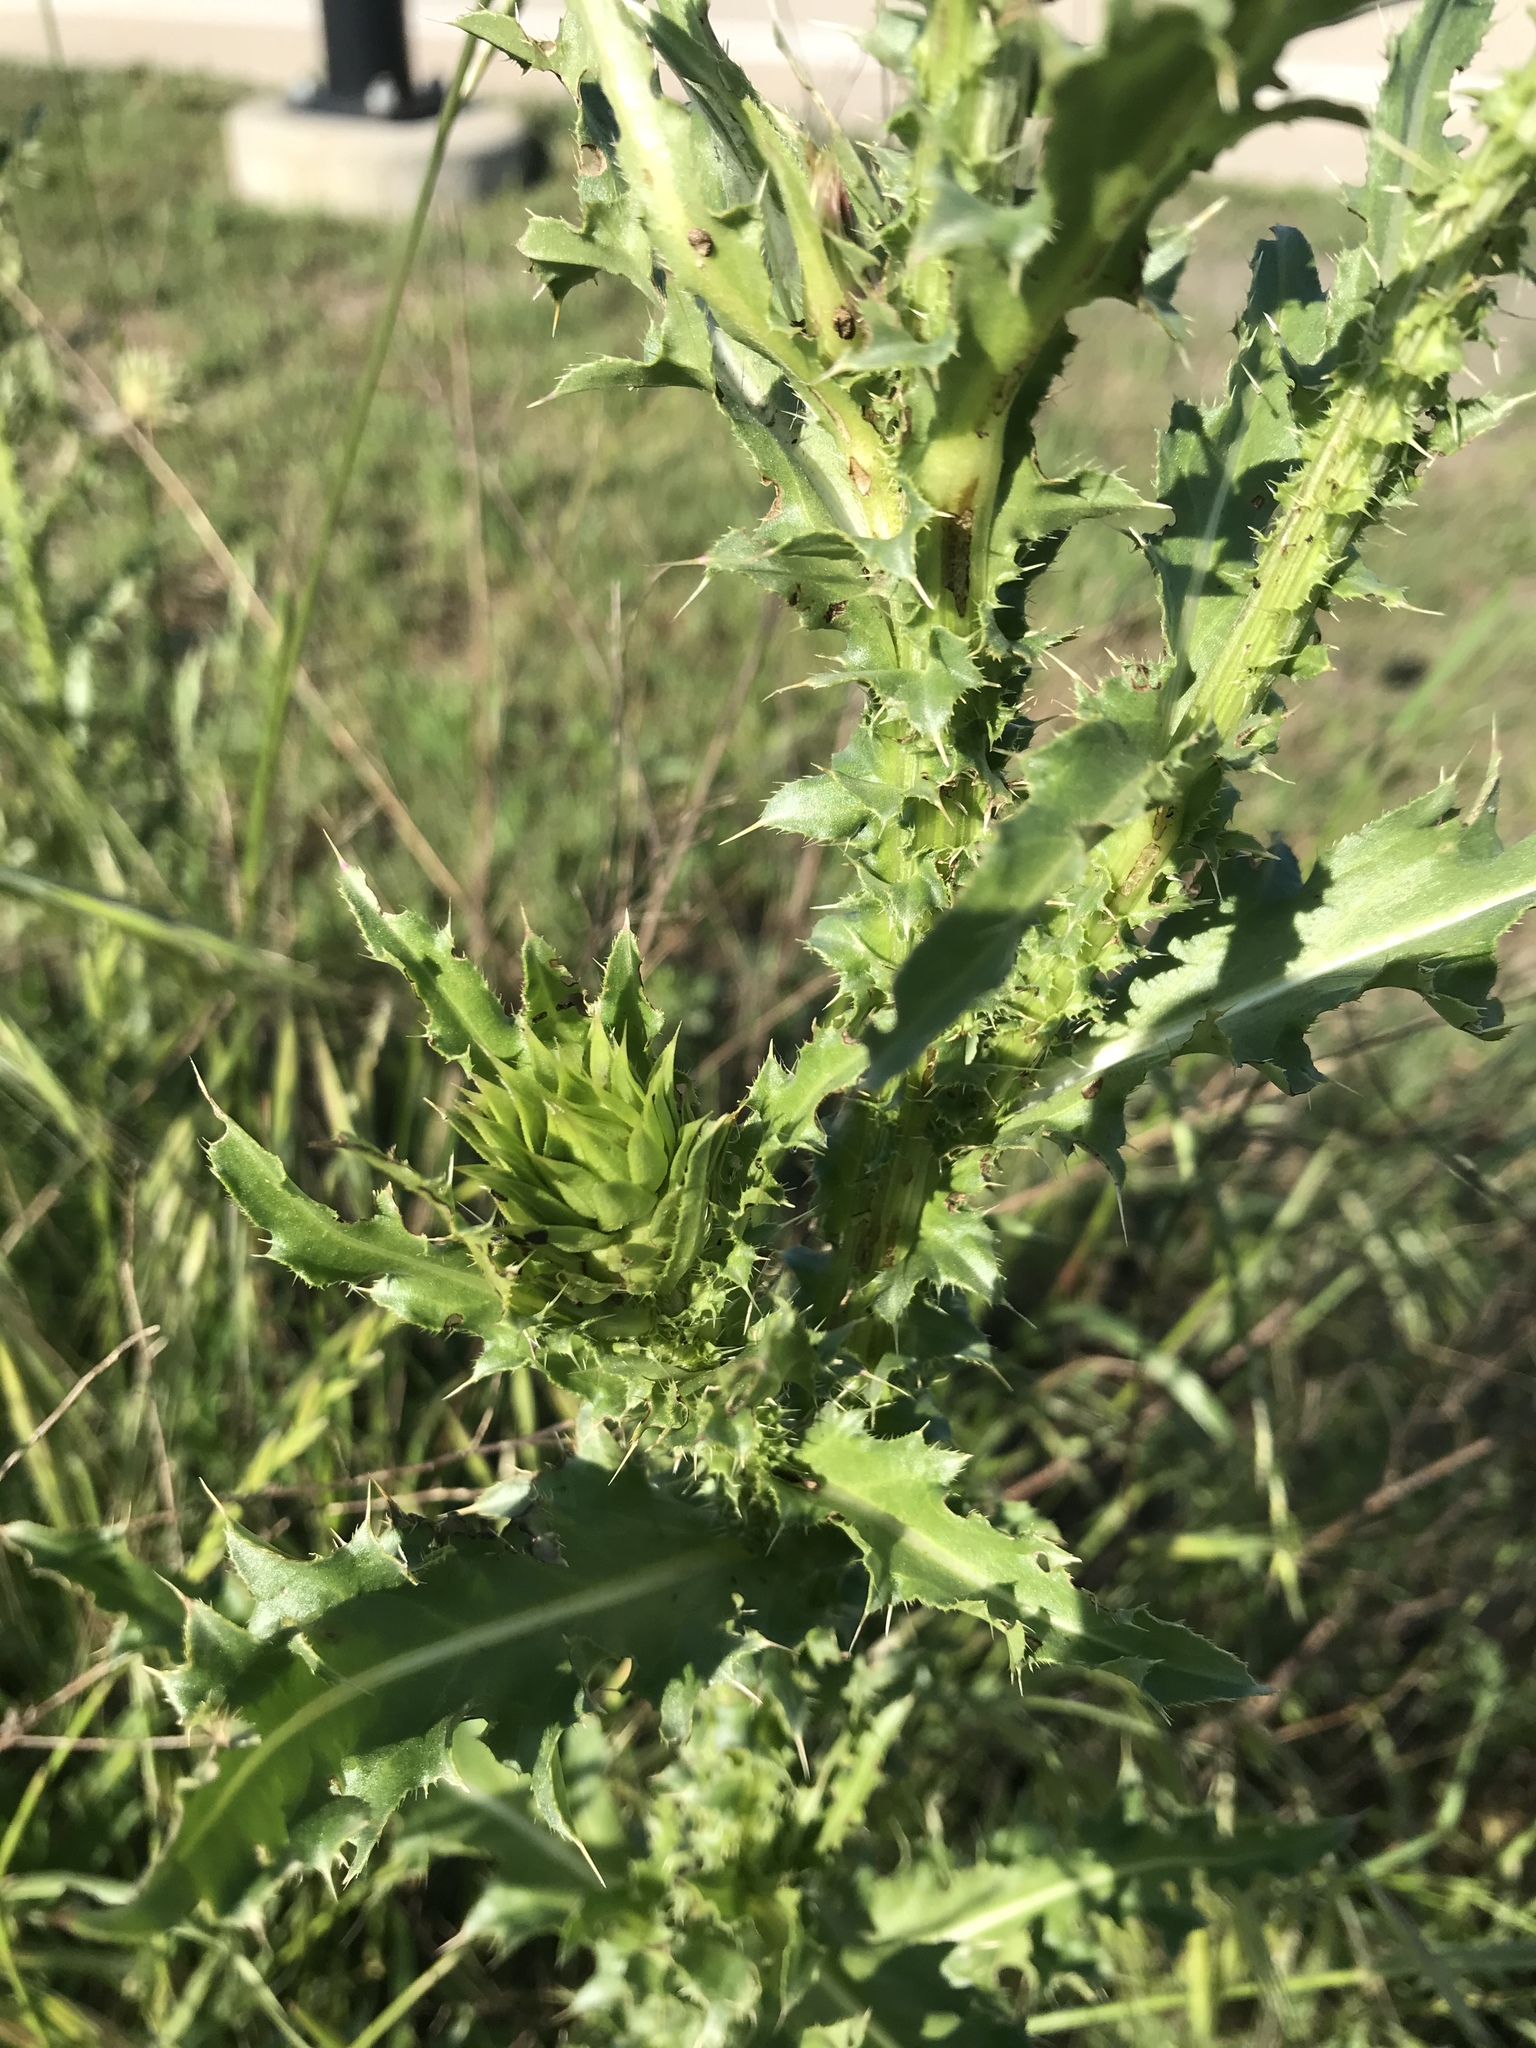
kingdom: Plantae
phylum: Tracheophyta
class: Magnoliopsida
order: Asterales
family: Asteraceae
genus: Carduus
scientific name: Carduus nutans
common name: Musk thistle
